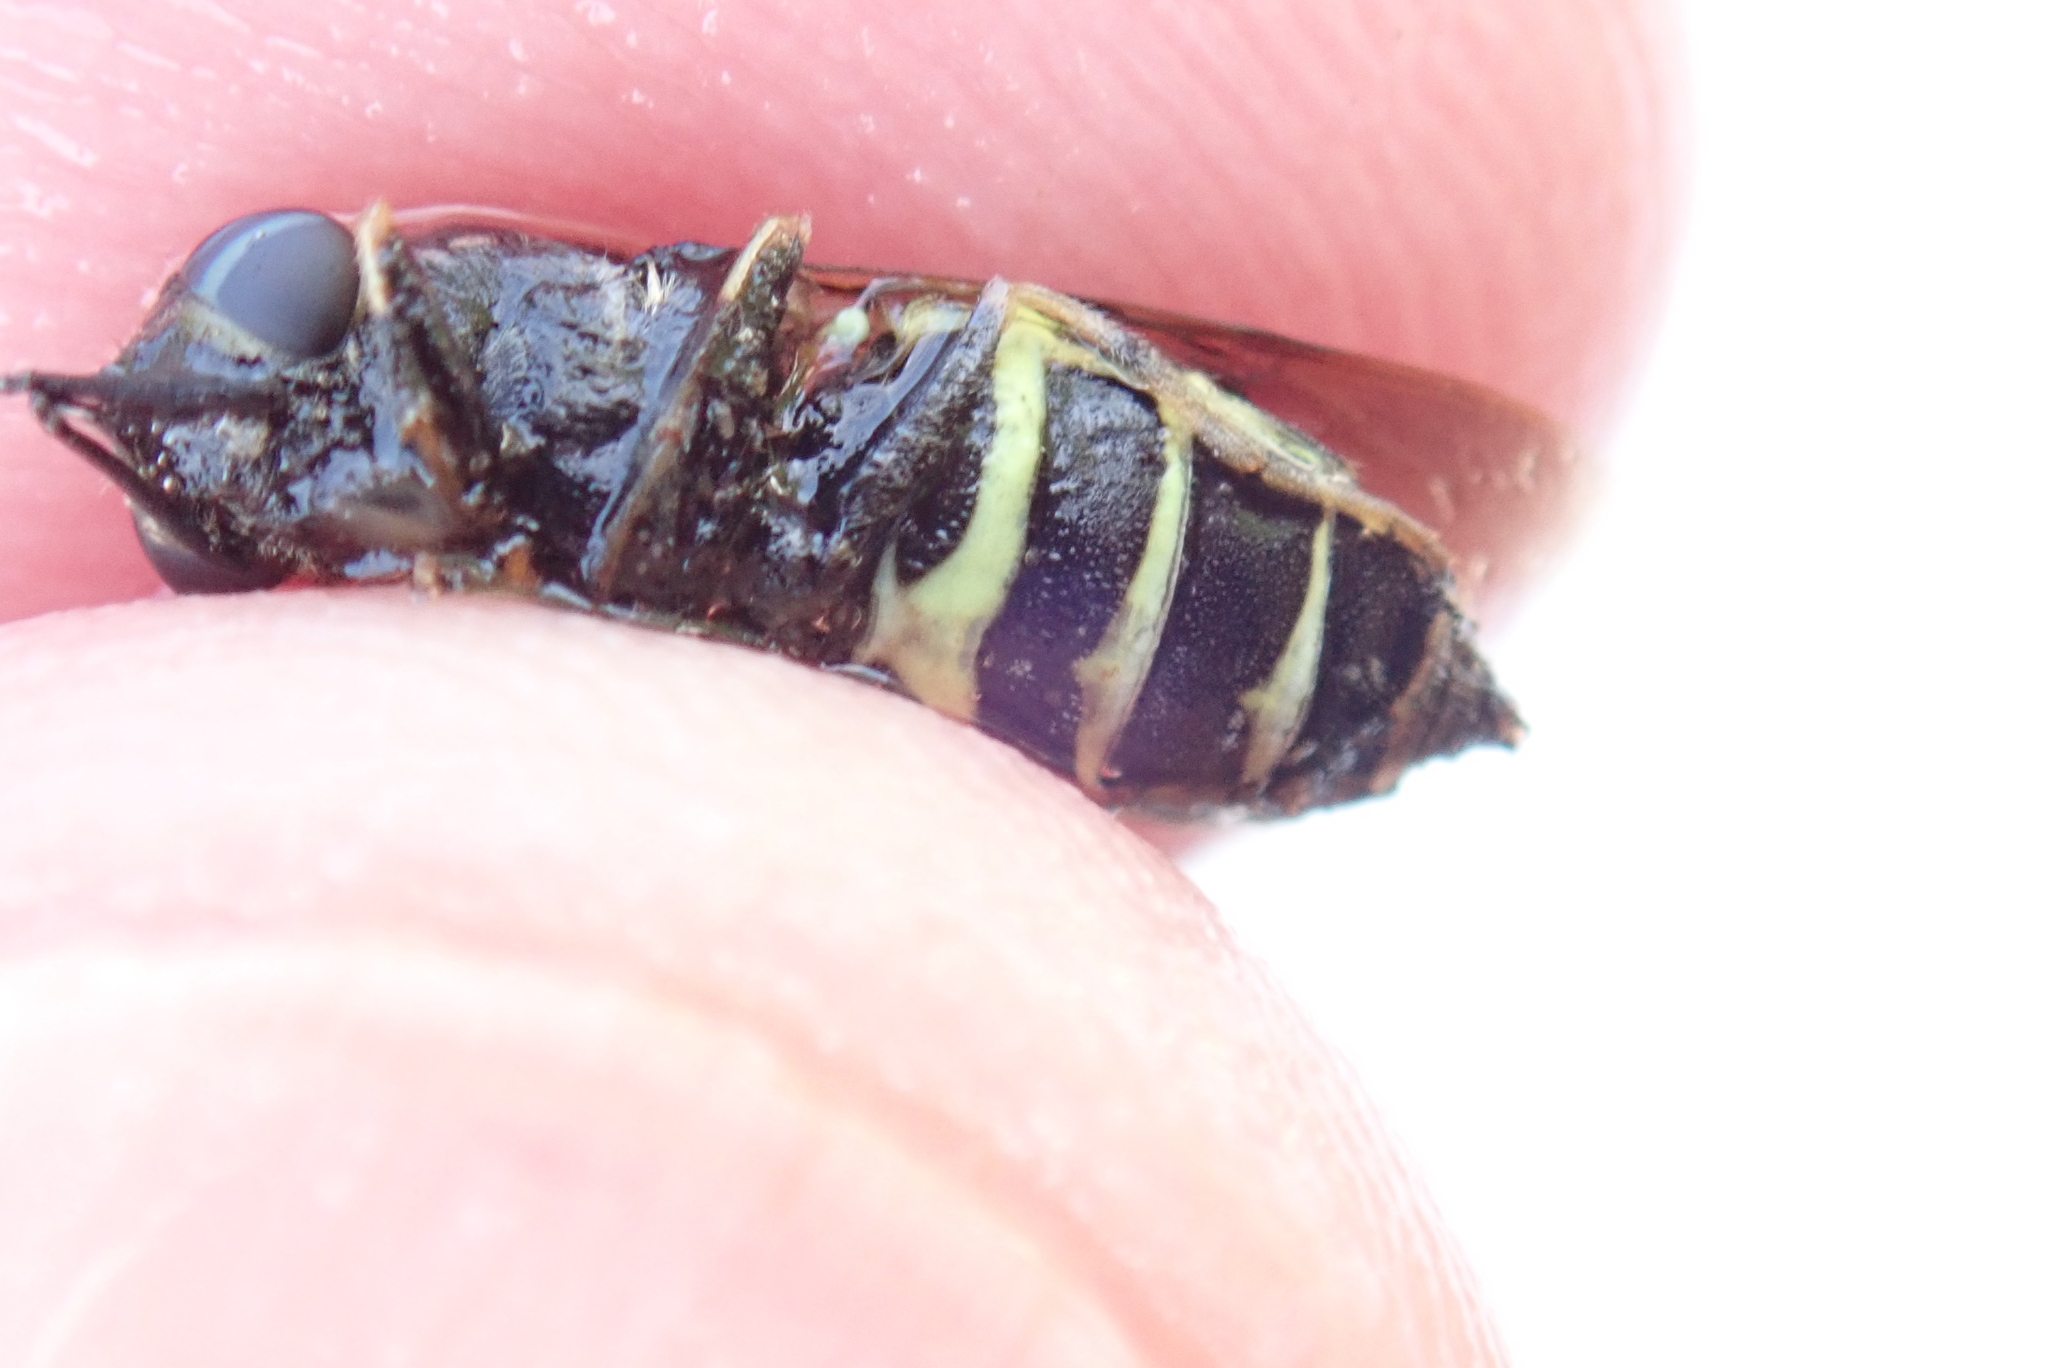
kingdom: Animalia
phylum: Arthropoda
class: Insecta
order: Diptera
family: Stratiomyidae
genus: Stratiomys
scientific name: Stratiomys badia
